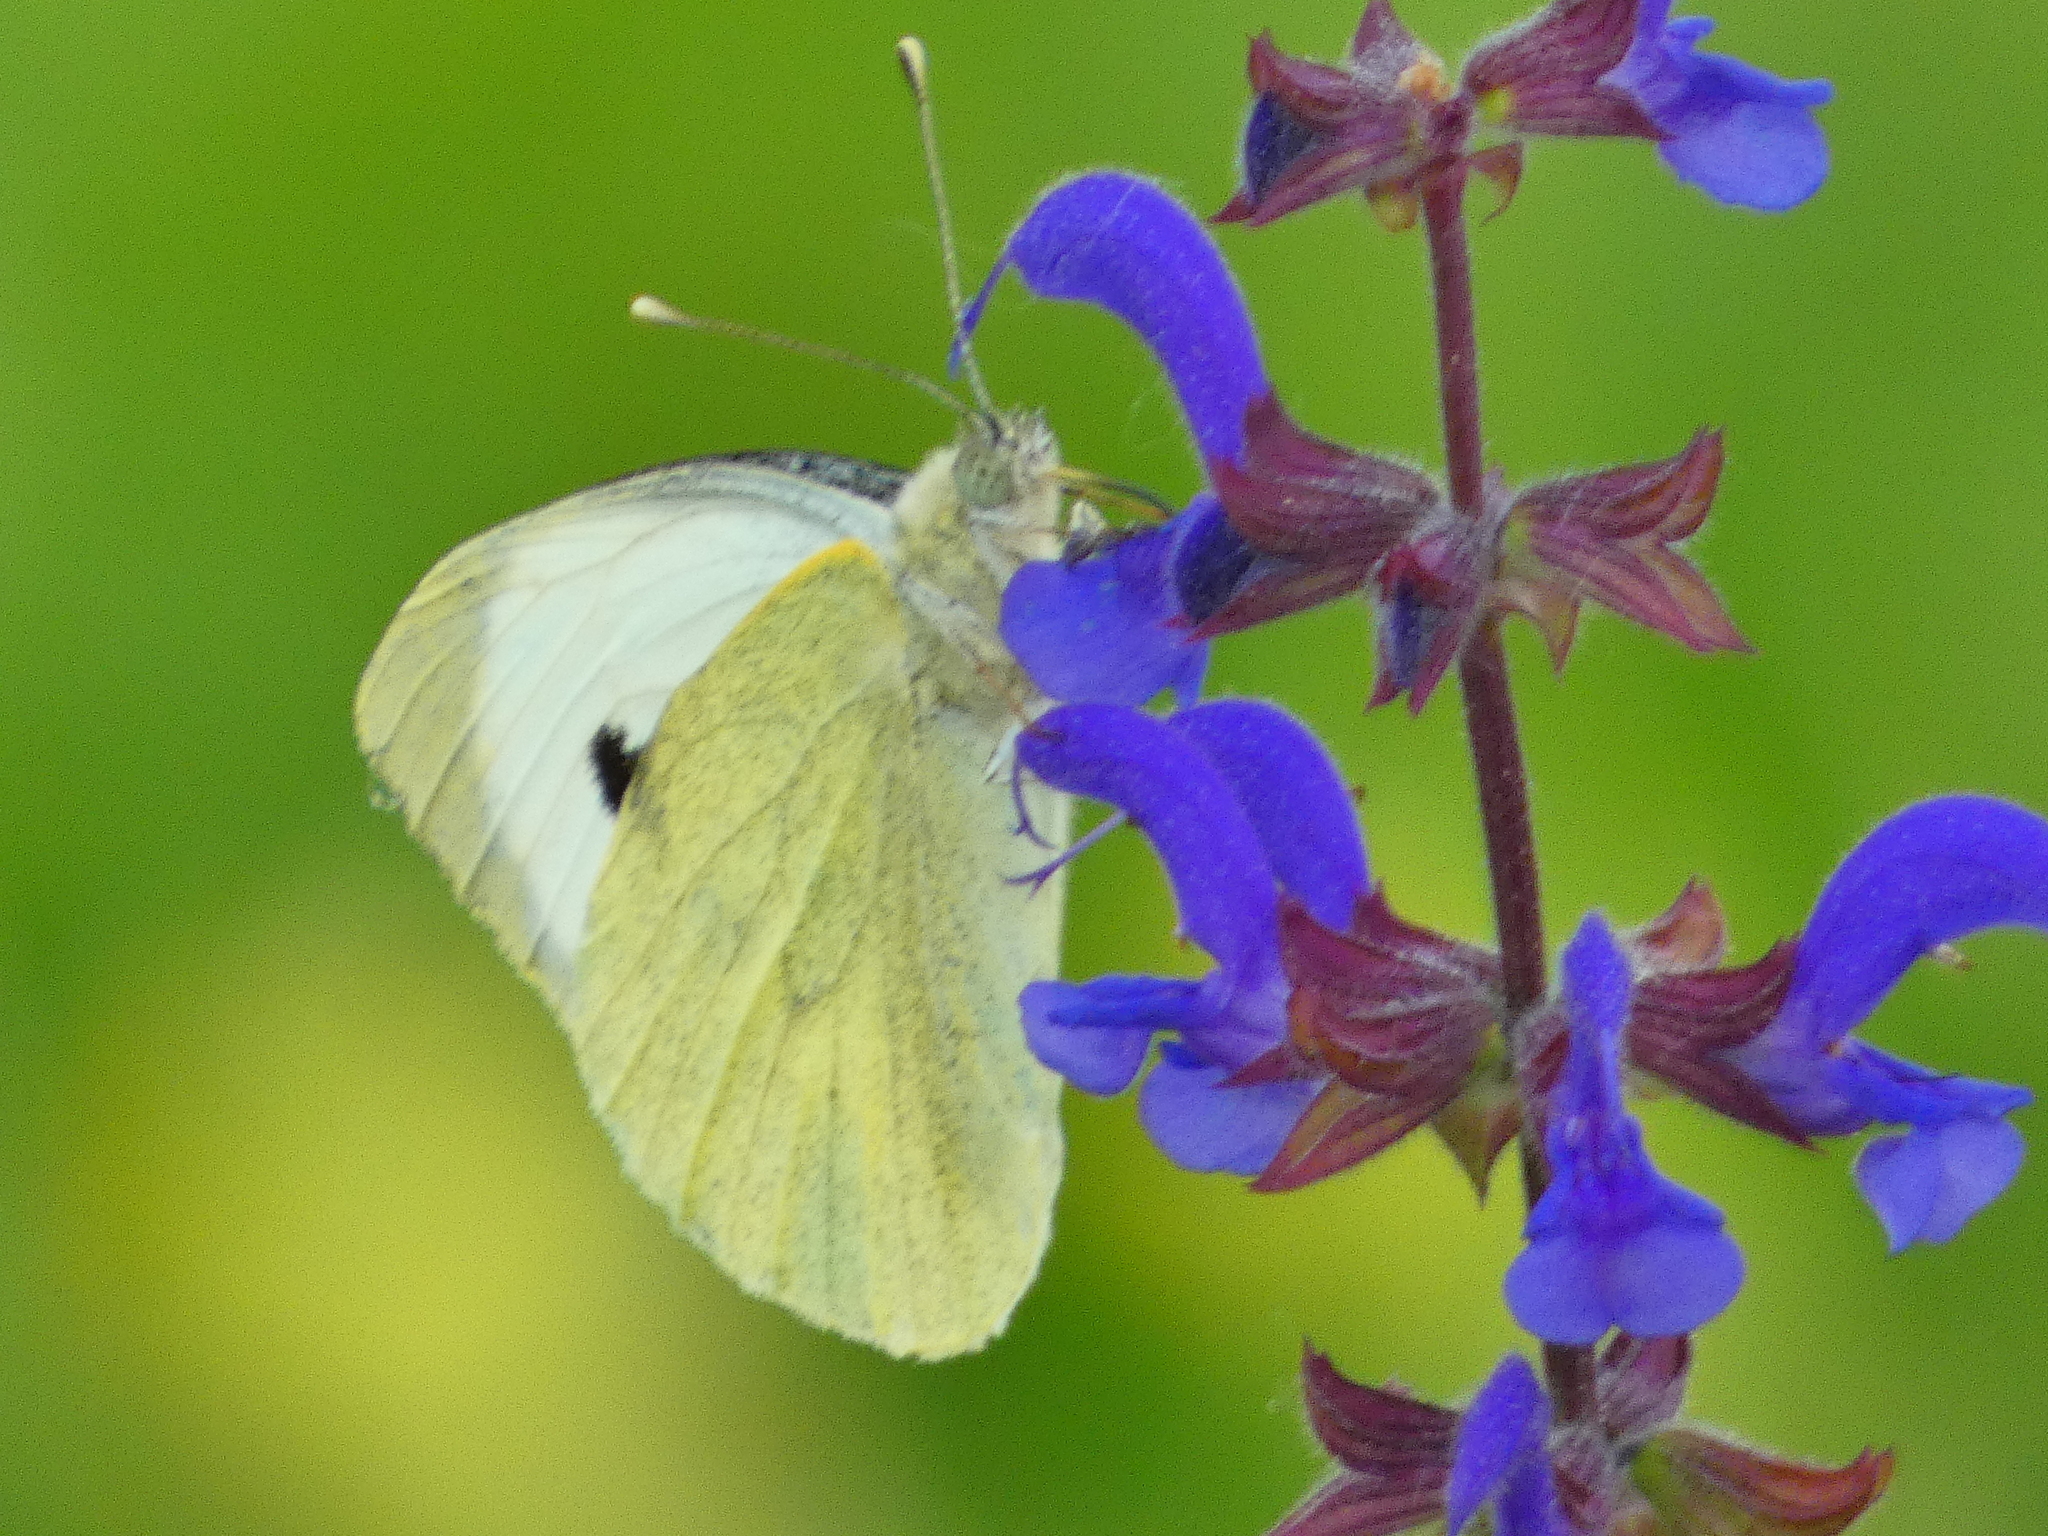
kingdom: Animalia
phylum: Arthropoda
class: Insecta
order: Lepidoptera
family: Pieridae
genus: Pieris
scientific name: Pieris brassicae
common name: Large white
